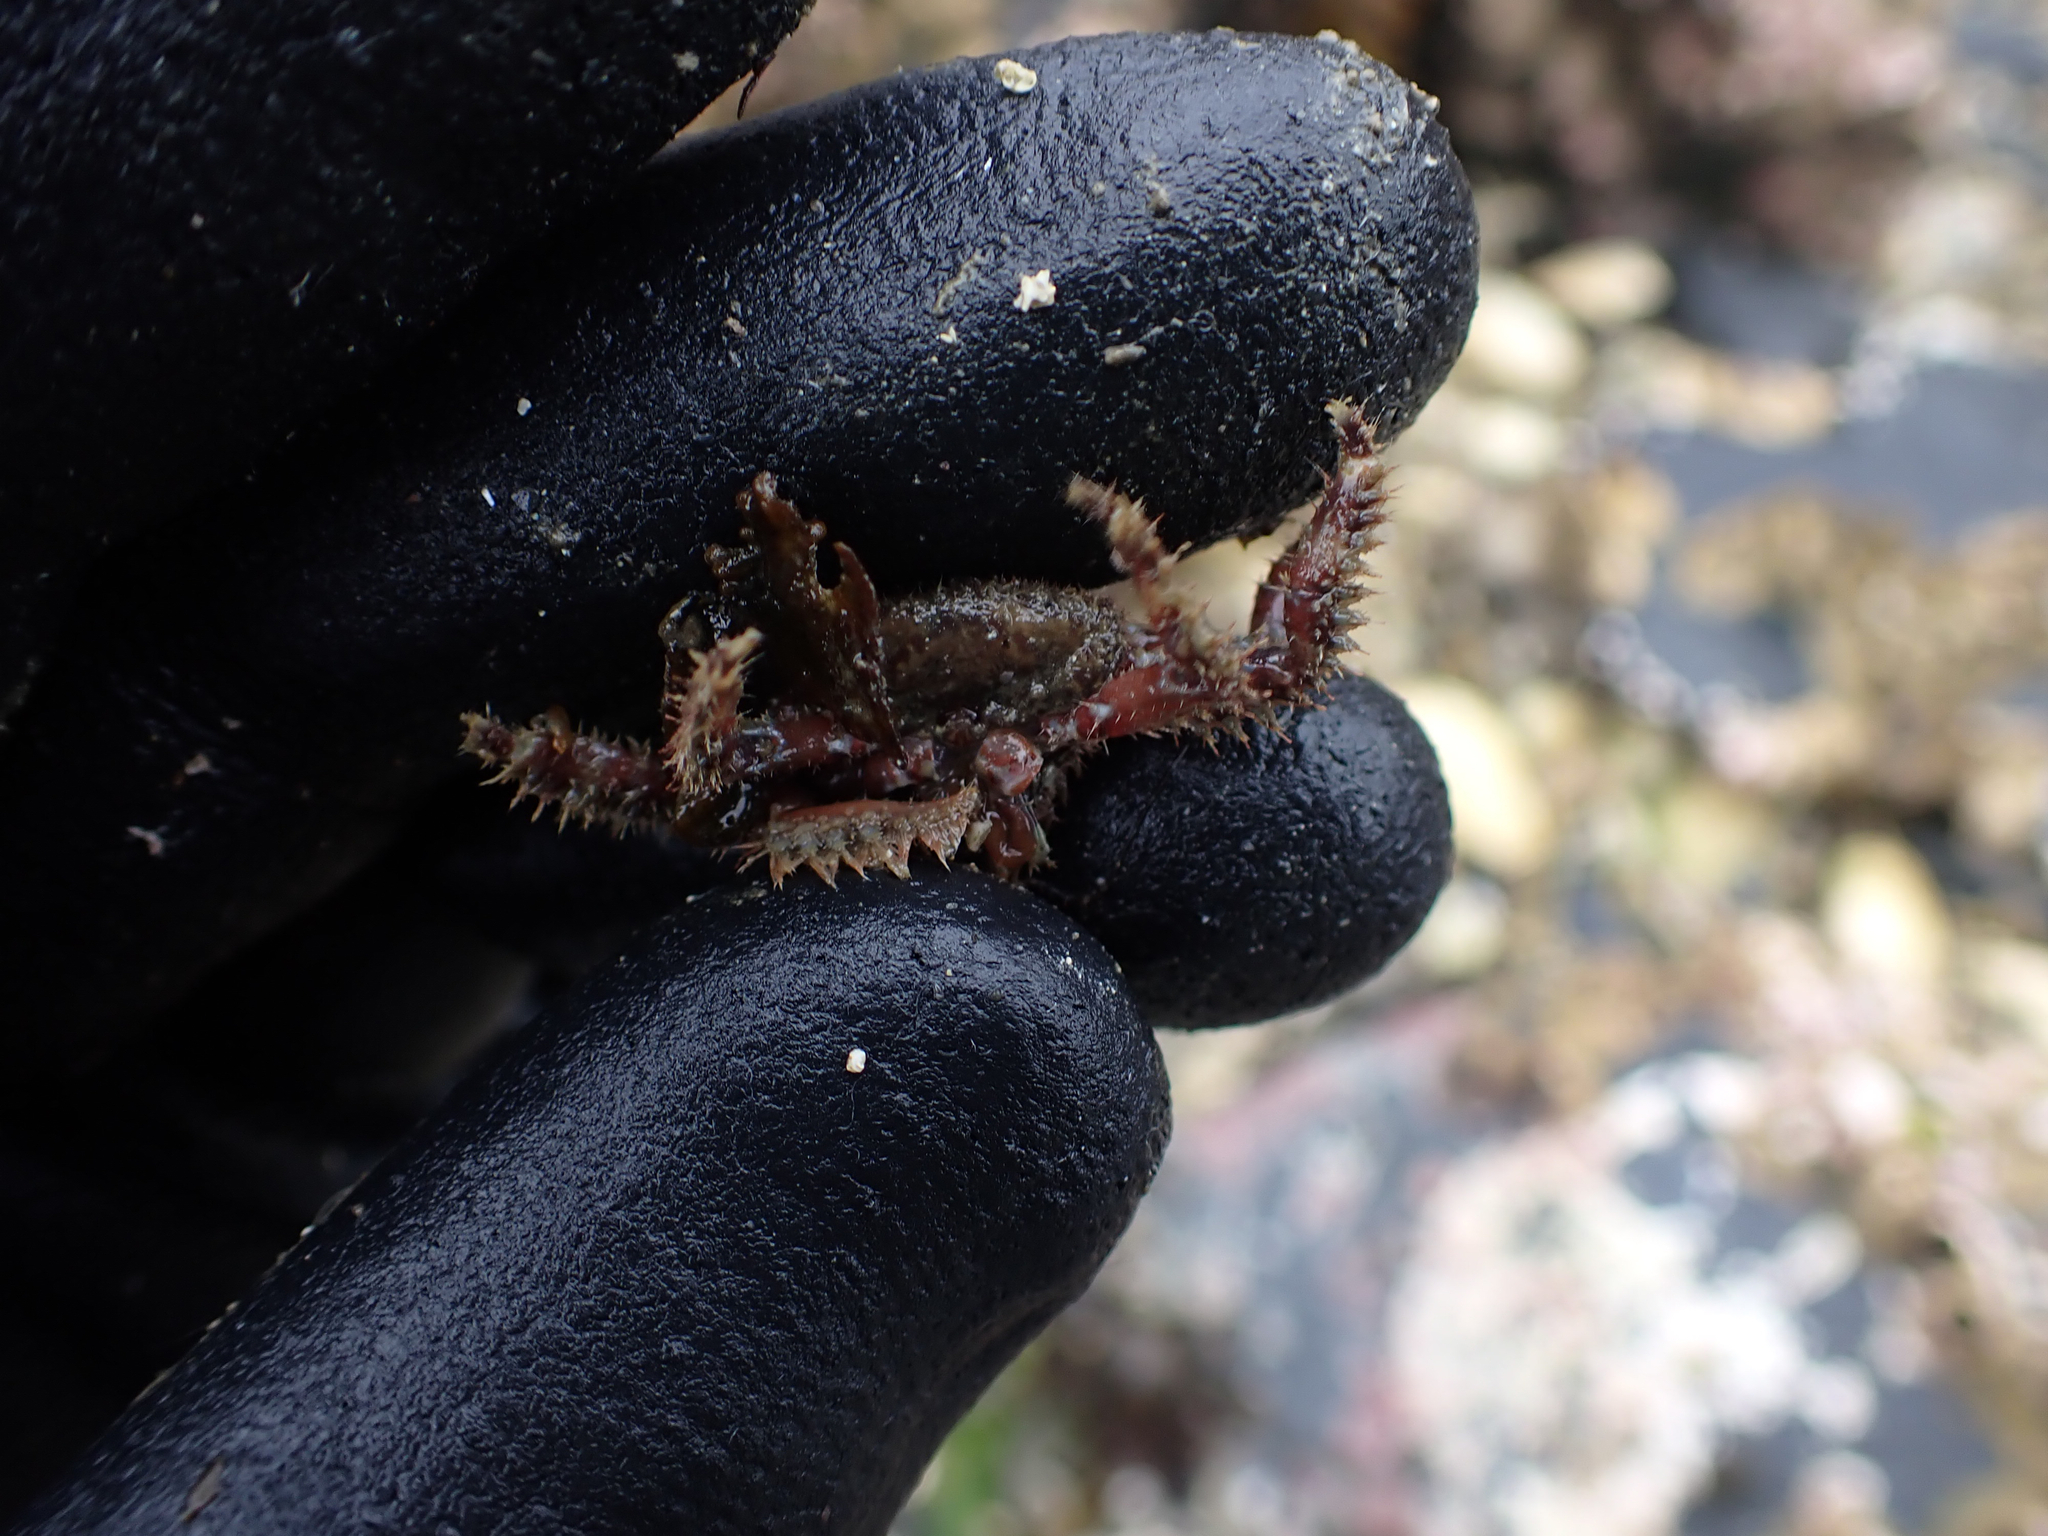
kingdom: Animalia
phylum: Arthropoda
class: Malacostraca
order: Decapoda
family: Hapalogastridae
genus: Hapalogaster
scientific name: Hapalogaster mertensii
